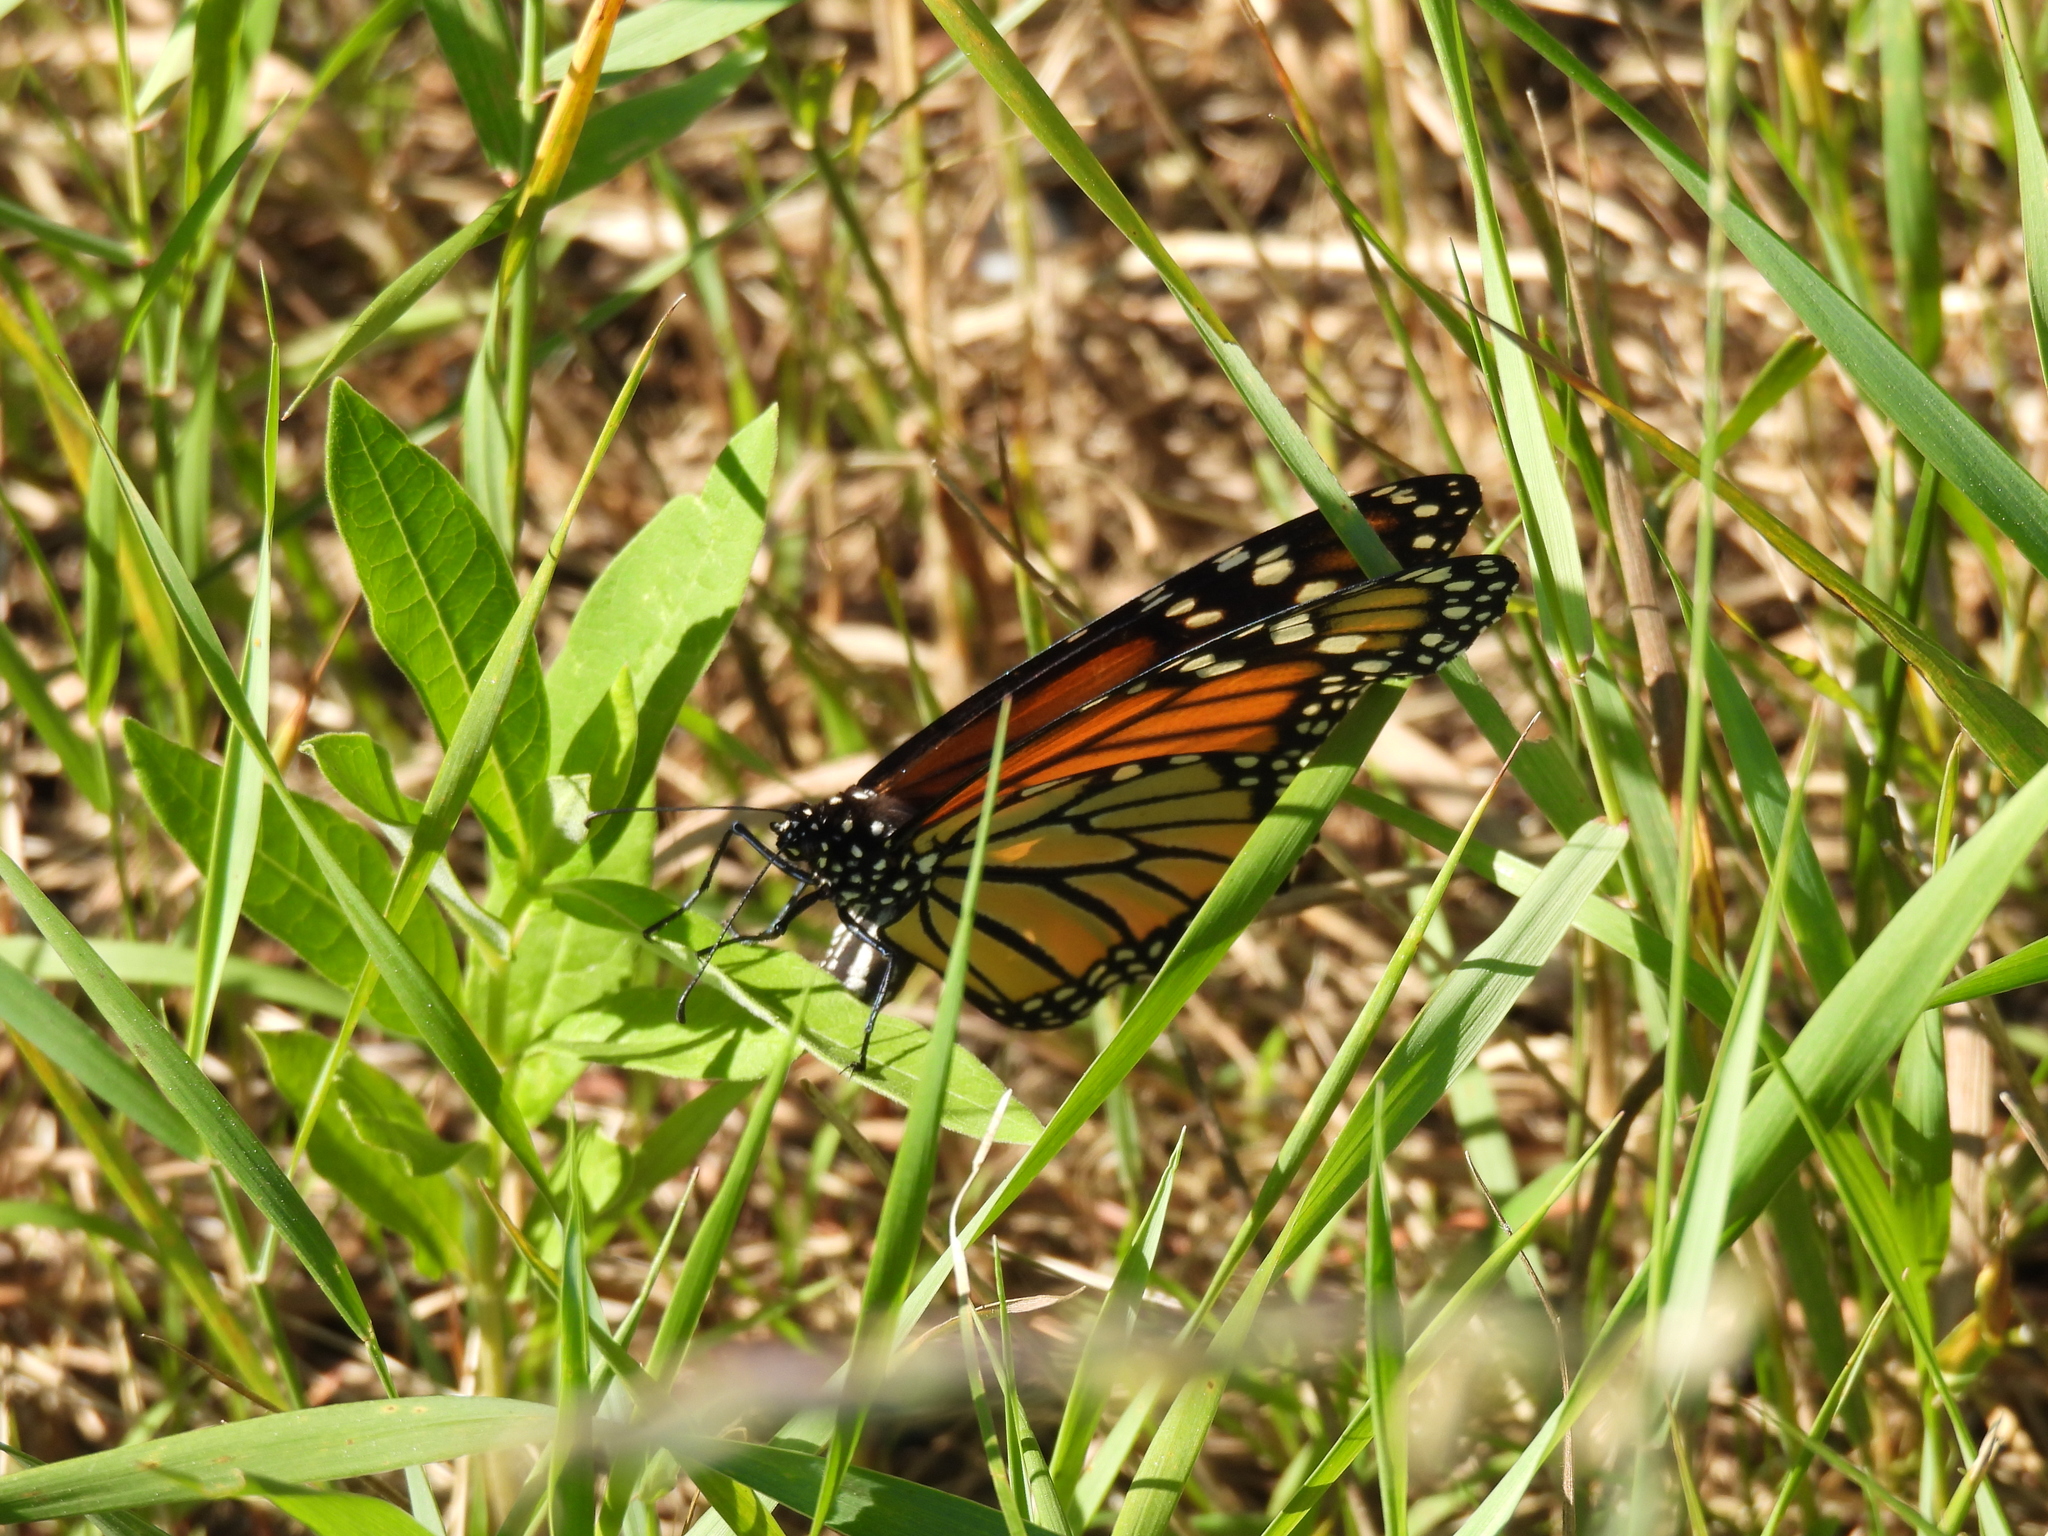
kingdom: Animalia
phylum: Arthropoda
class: Insecta
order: Lepidoptera
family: Nymphalidae
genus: Danaus
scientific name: Danaus plexippus
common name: Monarch
